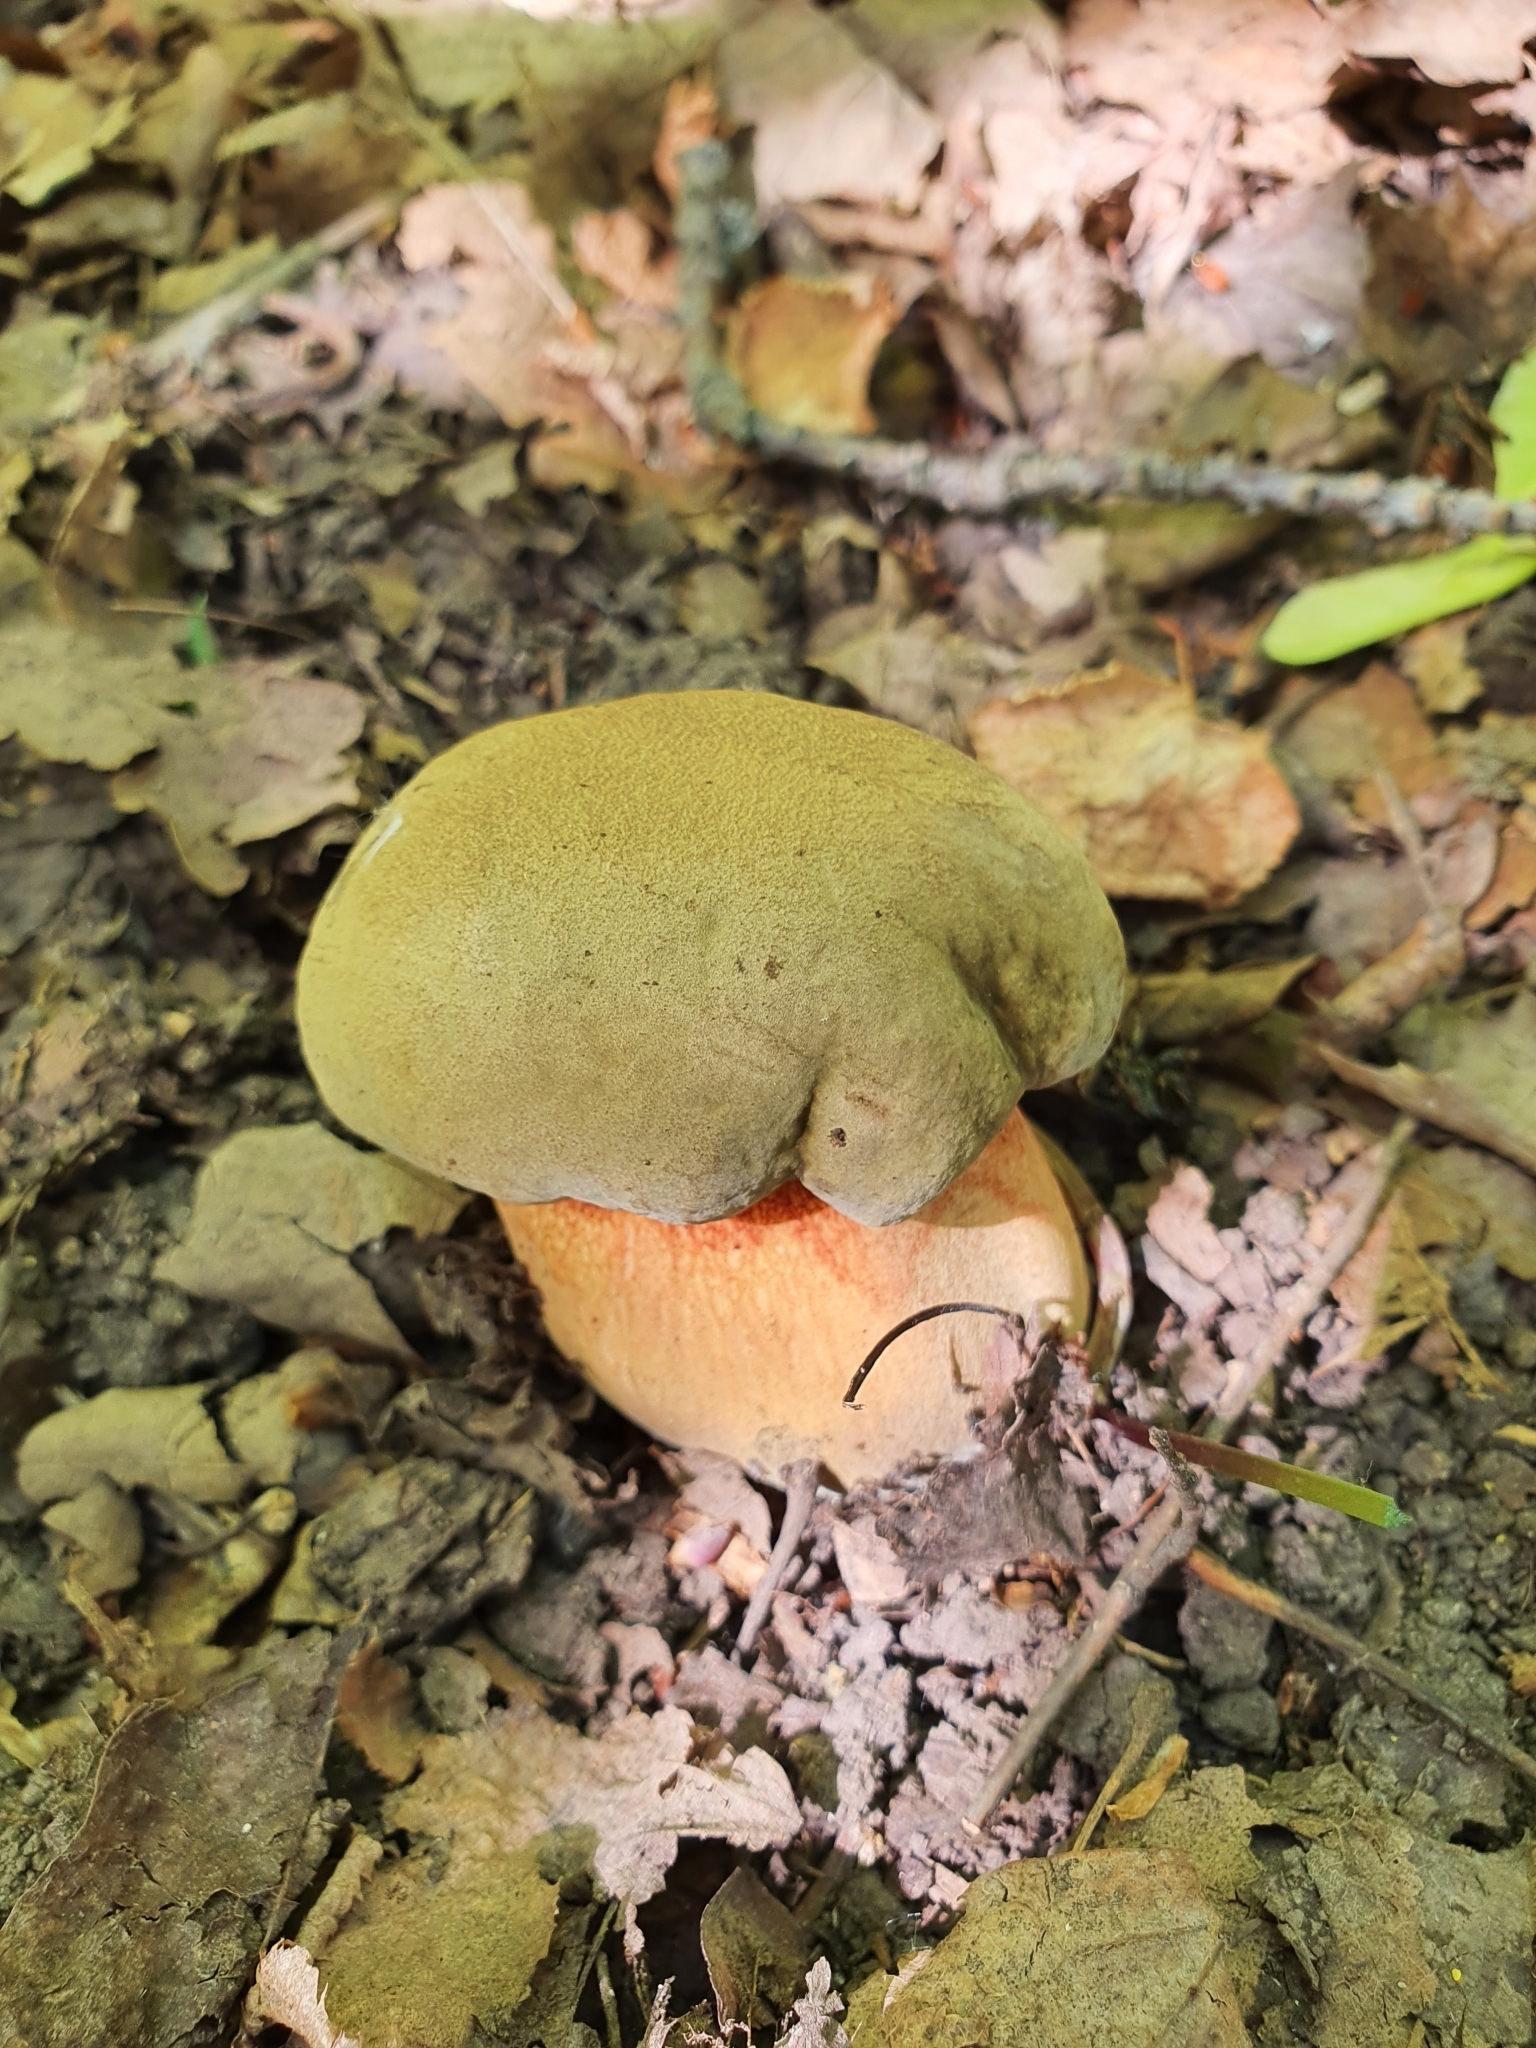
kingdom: Fungi
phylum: Basidiomycota
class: Agaricomycetes
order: Boletales
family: Boletaceae
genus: Suillellus
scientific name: Suillellus mendax
